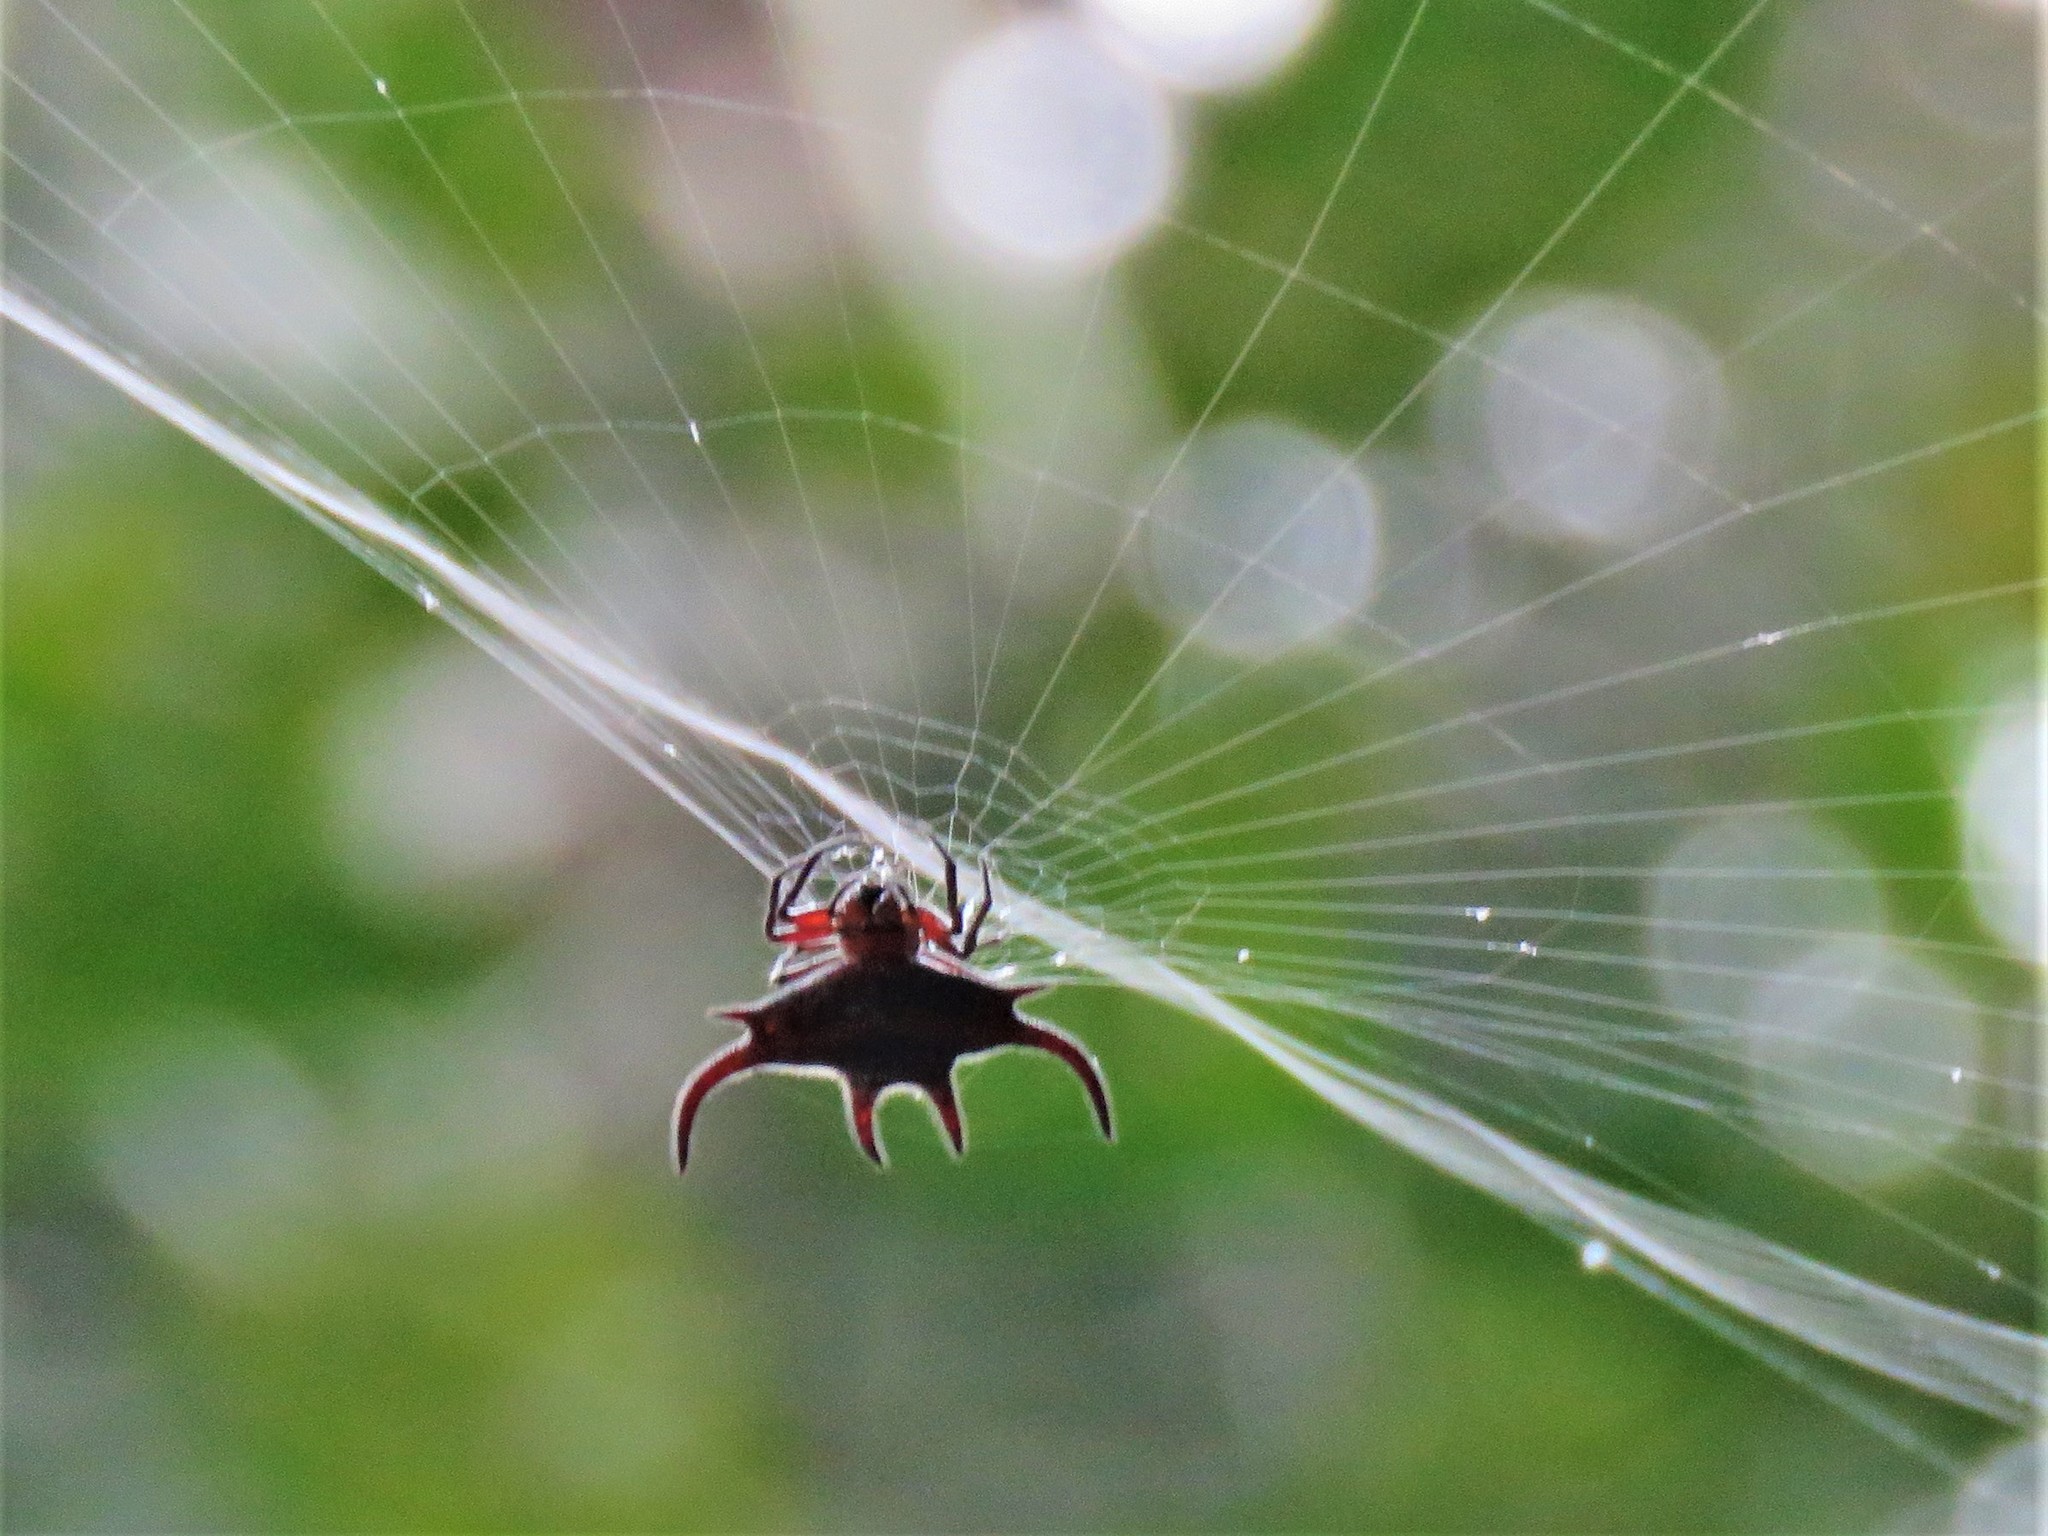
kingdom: Animalia
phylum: Arthropoda
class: Arachnida
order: Araneae
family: Araneidae
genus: Gasteracantha
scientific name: Gasteracantha curvispina
